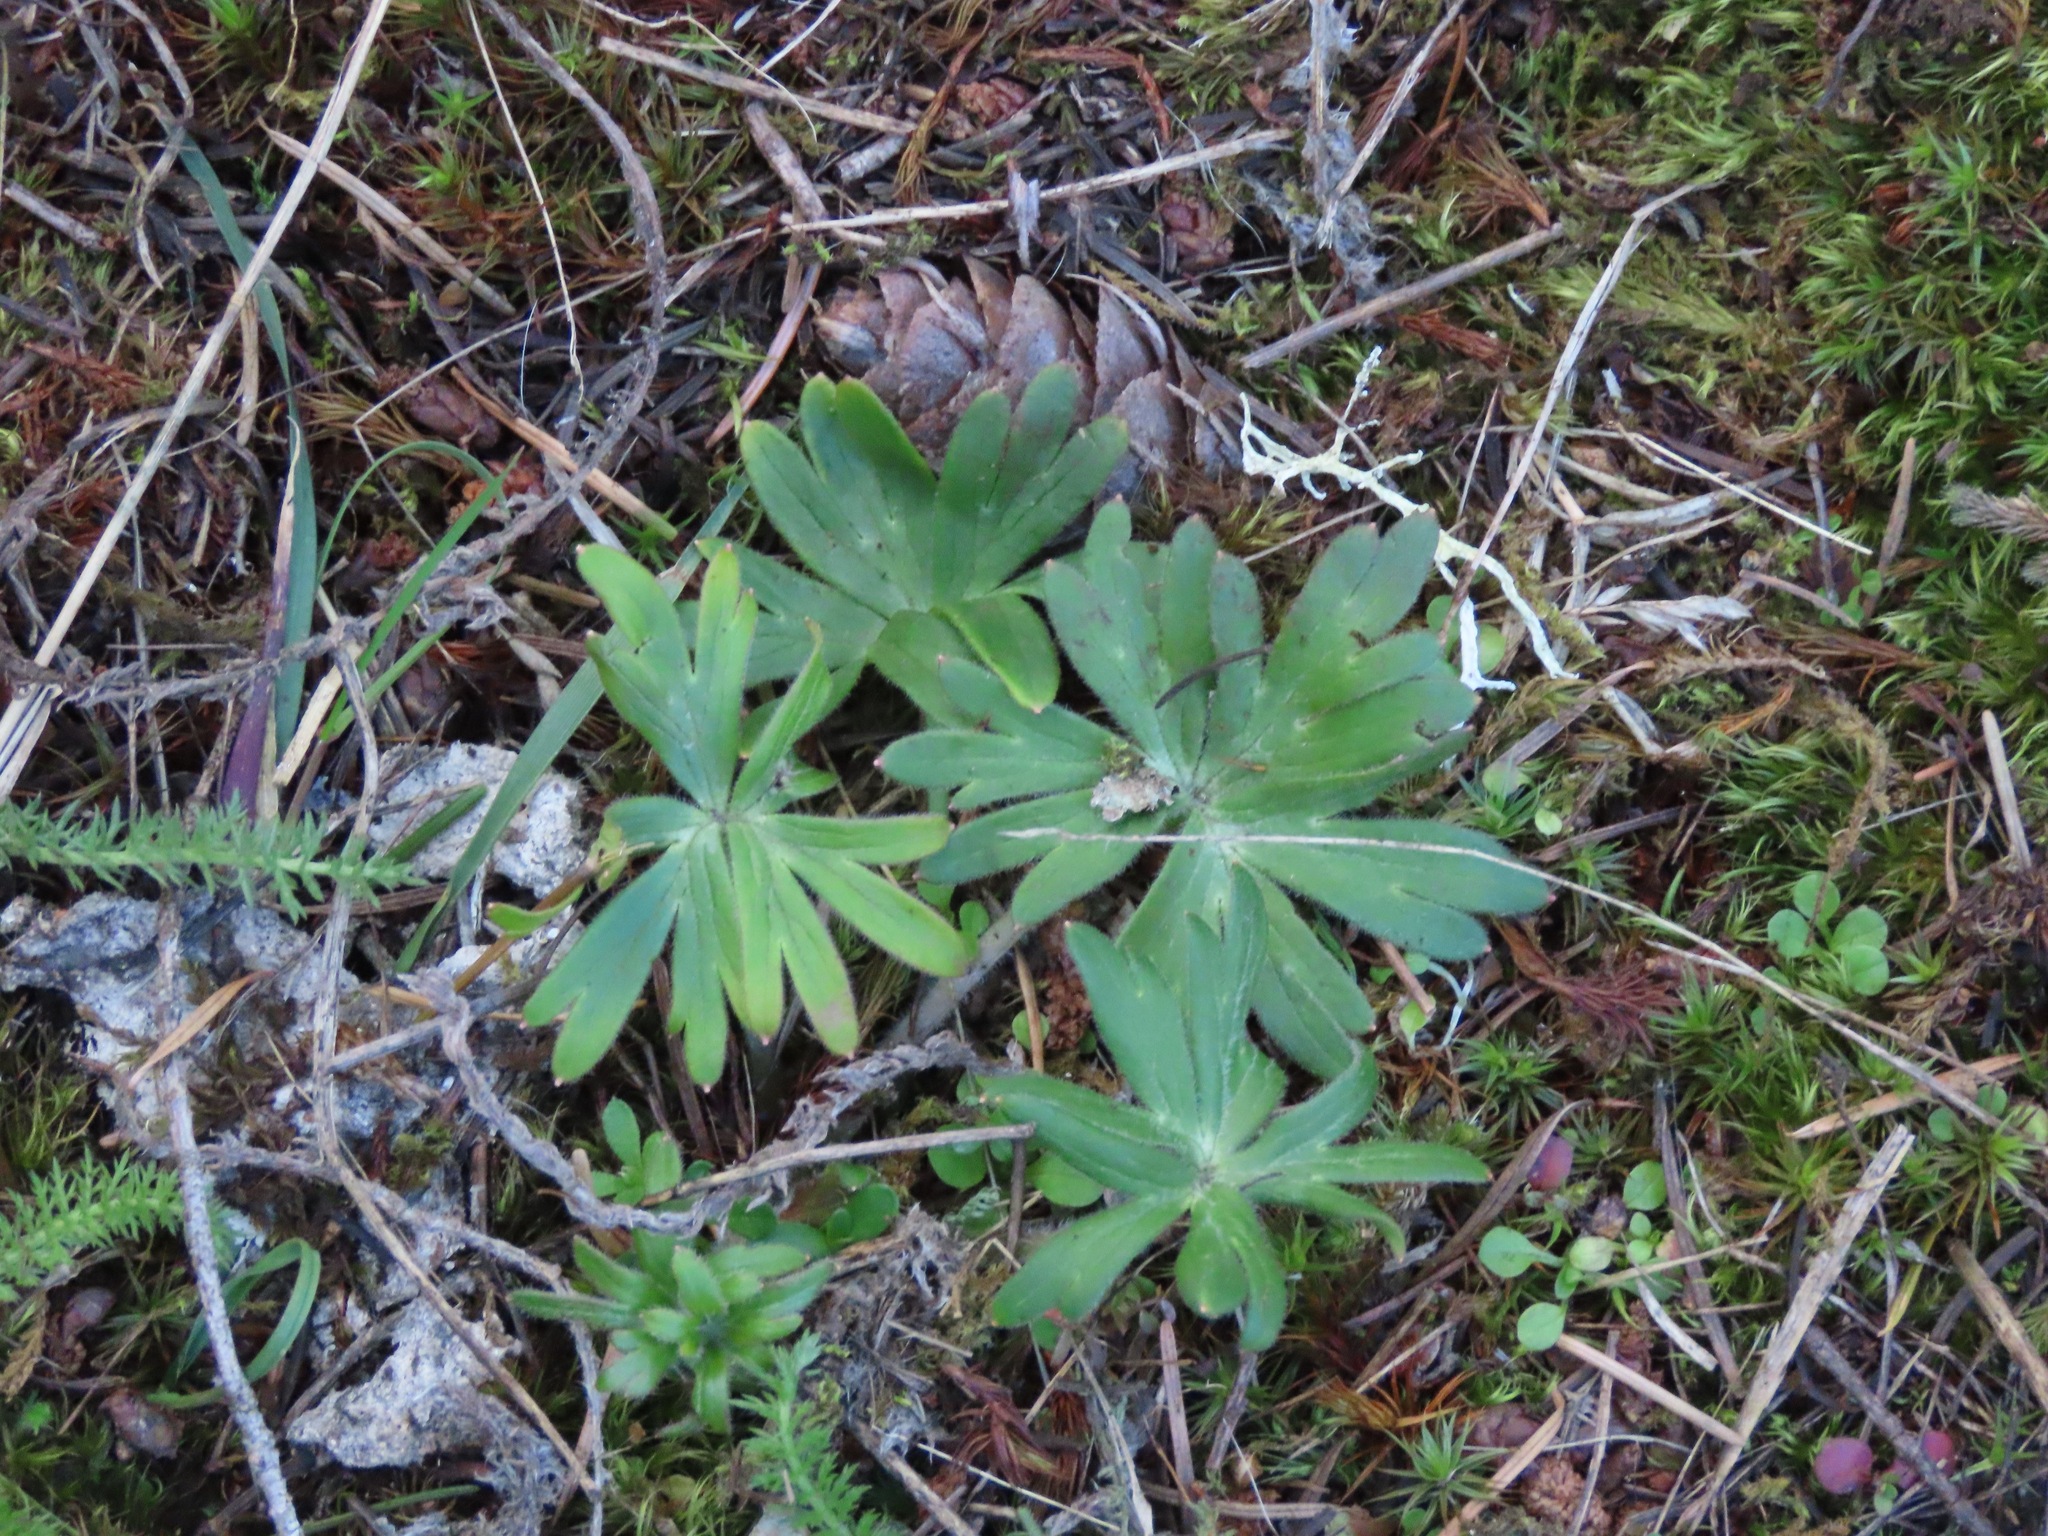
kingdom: Plantae
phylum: Tracheophyta
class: Magnoliopsida
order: Ranunculales
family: Ranunculaceae
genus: Delphinium
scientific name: Delphinium menziesii
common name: Menzies's larkspur
